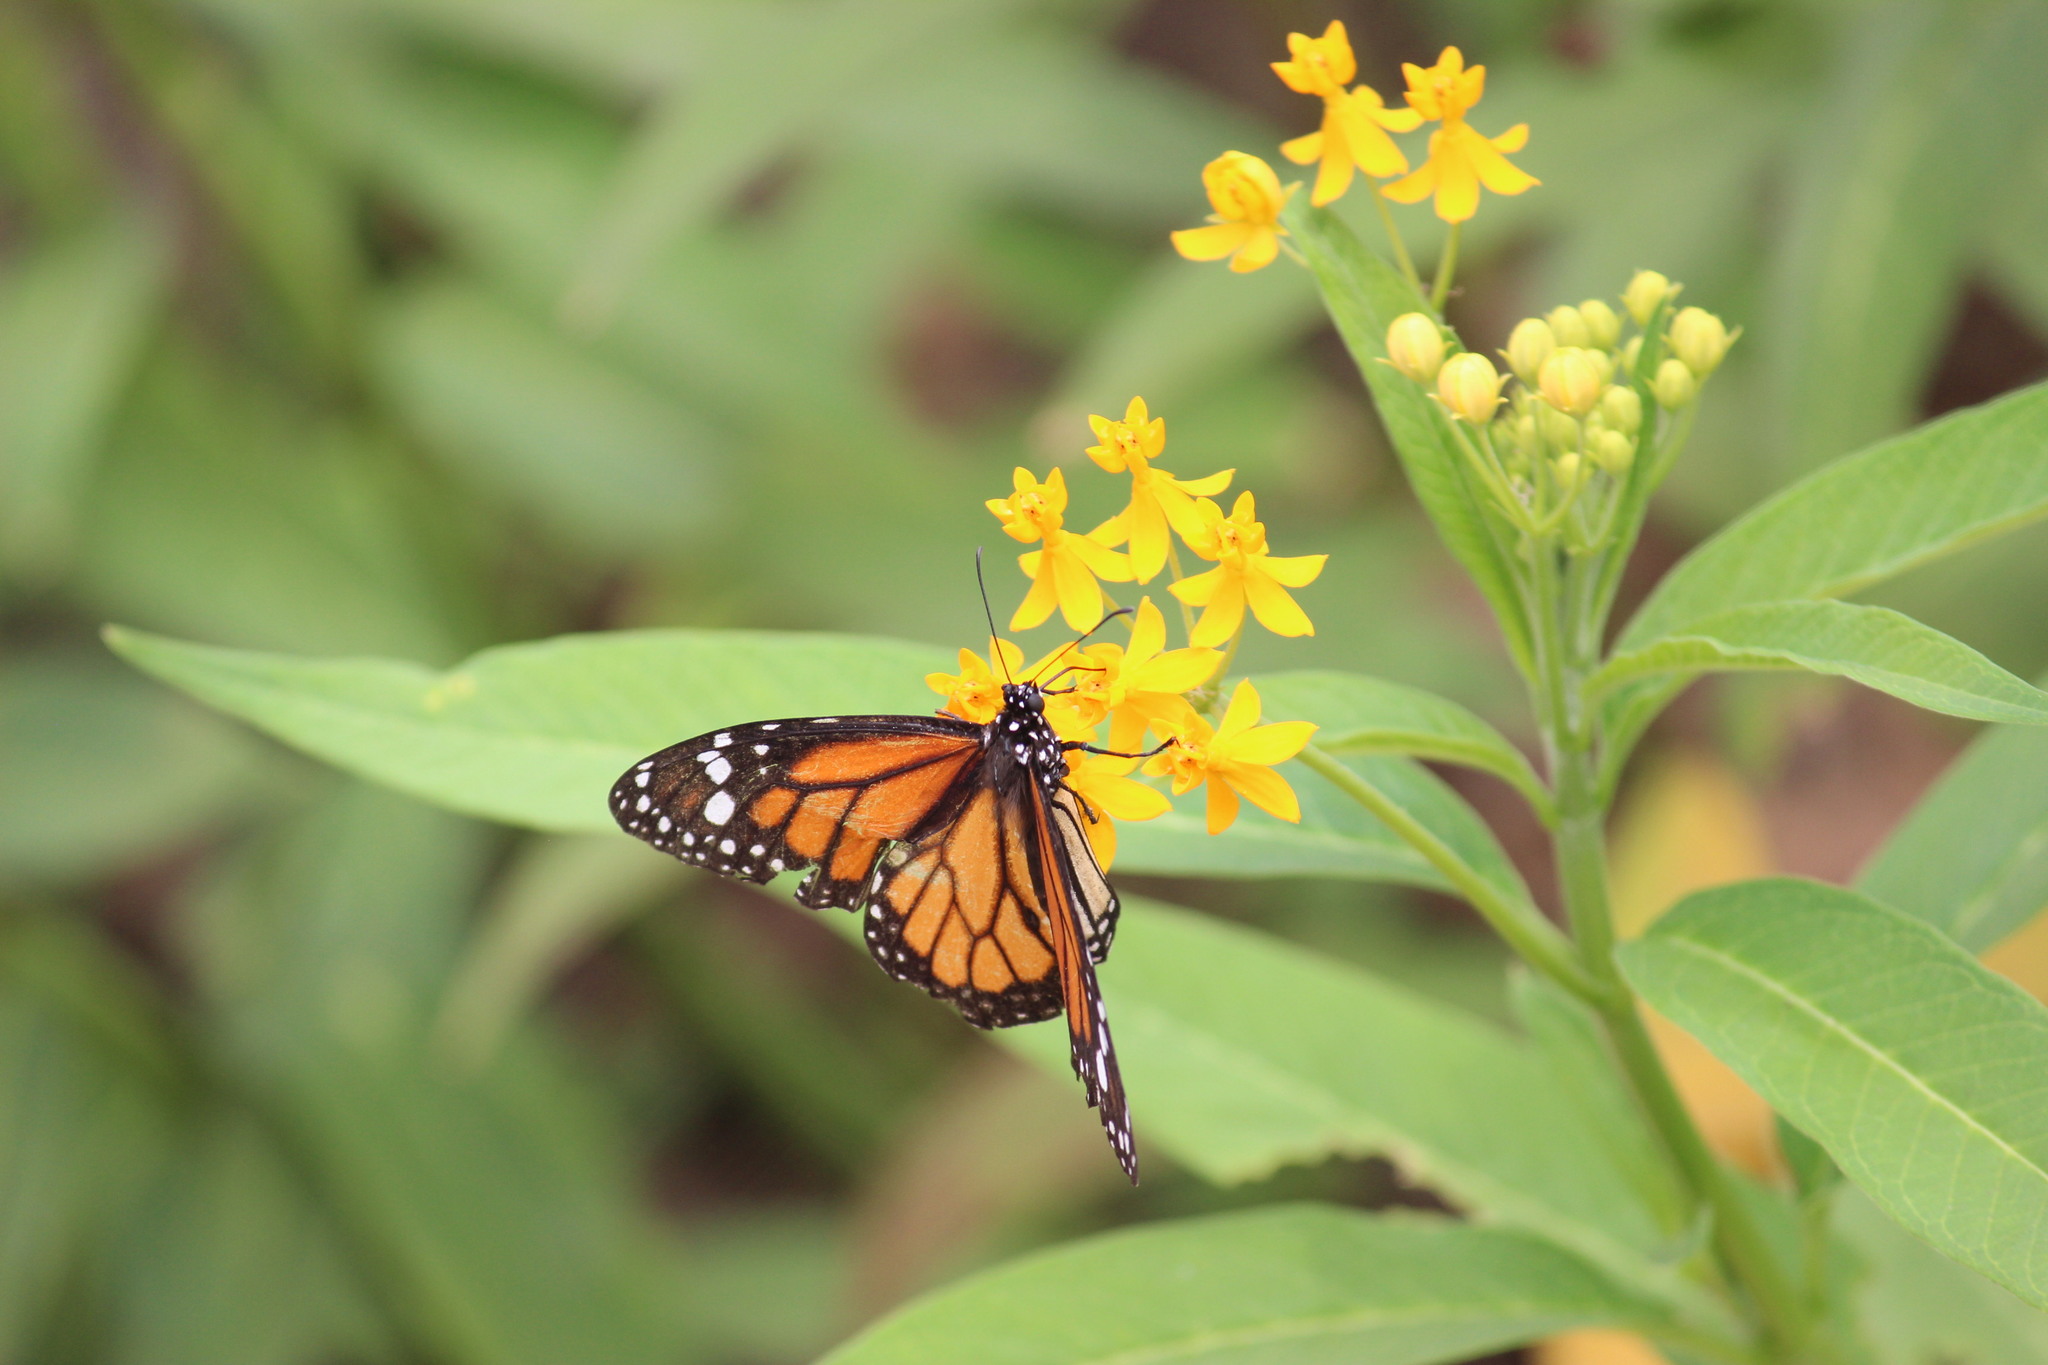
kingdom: Animalia
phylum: Arthropoda
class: Insecta
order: Lepidoptera
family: Nymphalidae
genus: Danaus
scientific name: Danaus plexippus
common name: Monarch
